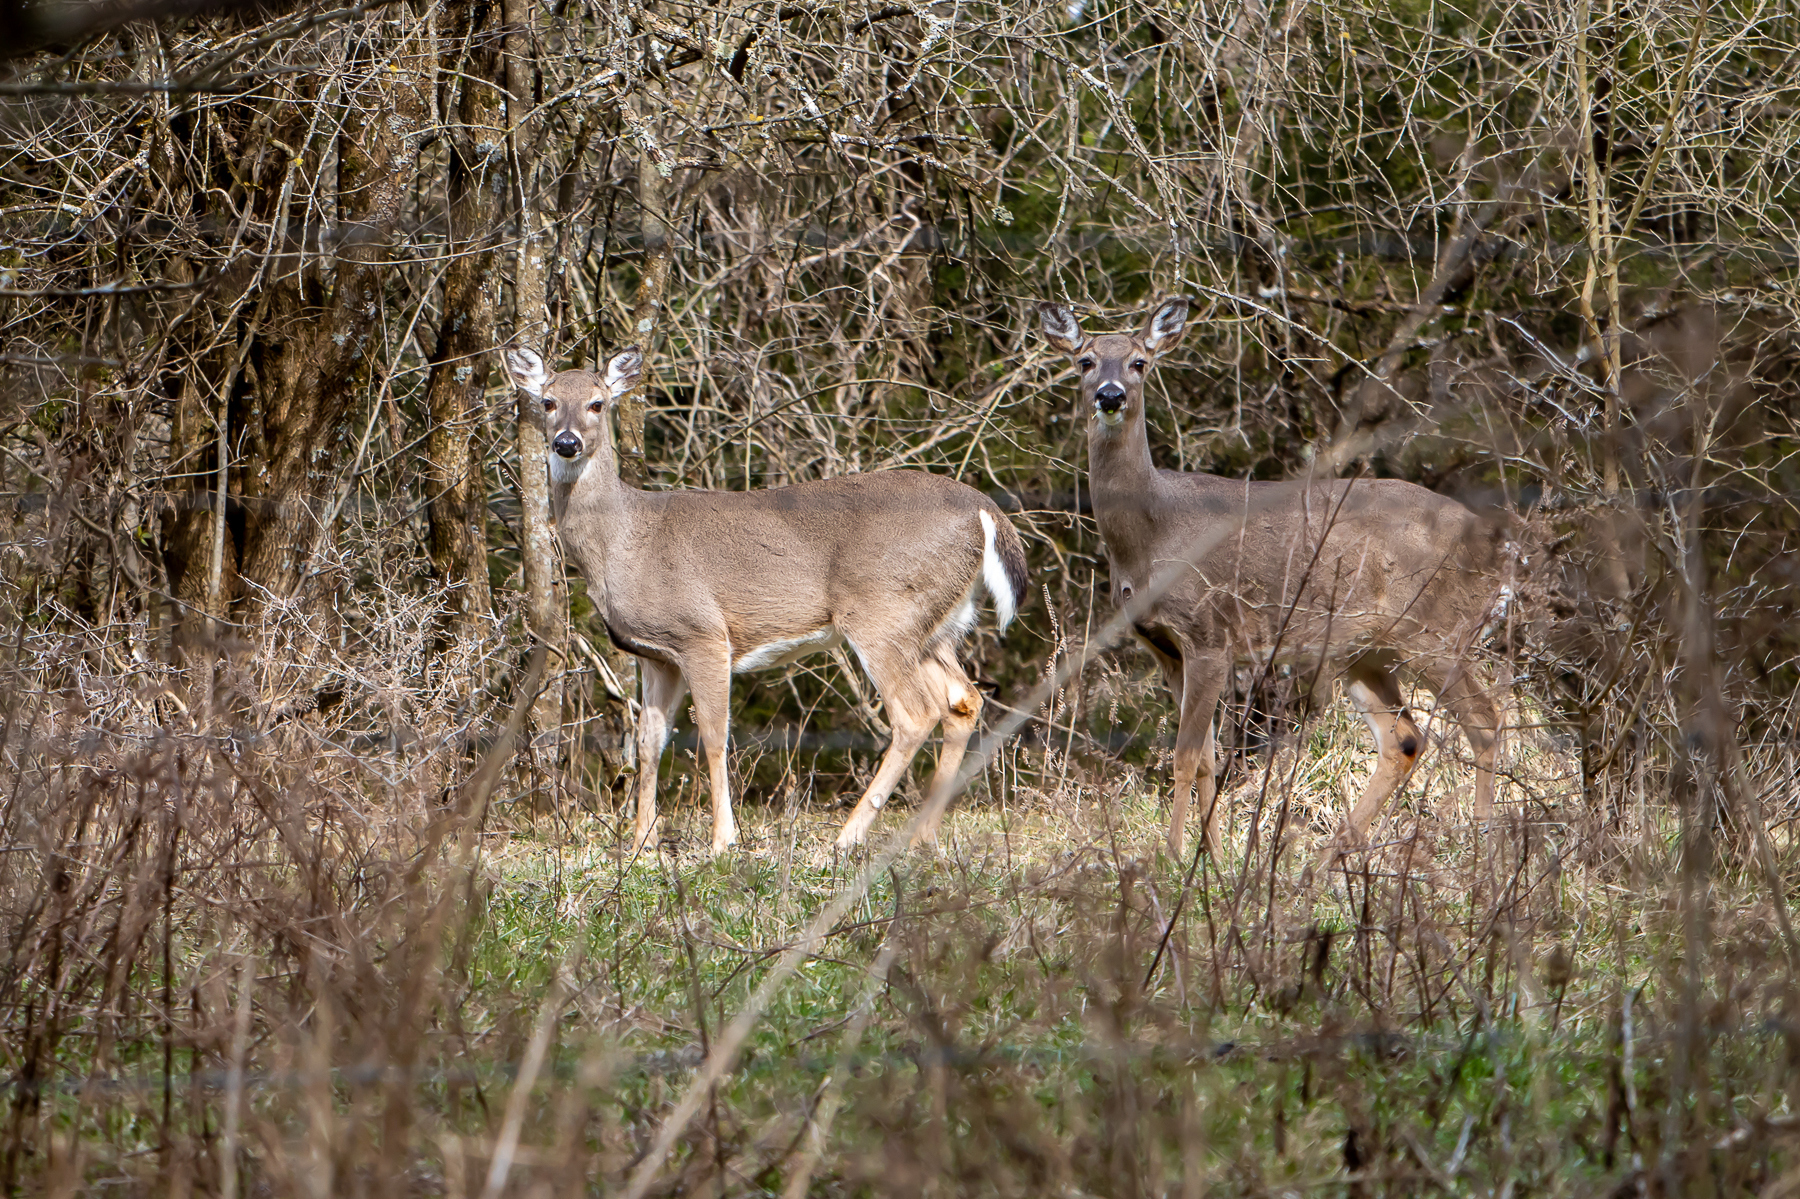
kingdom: Animalia
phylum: Chordata
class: Mammalia
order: Artiodactyla
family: Cervidae
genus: Odocoileus
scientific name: Odocoileus virginianus
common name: White-tailed deer
